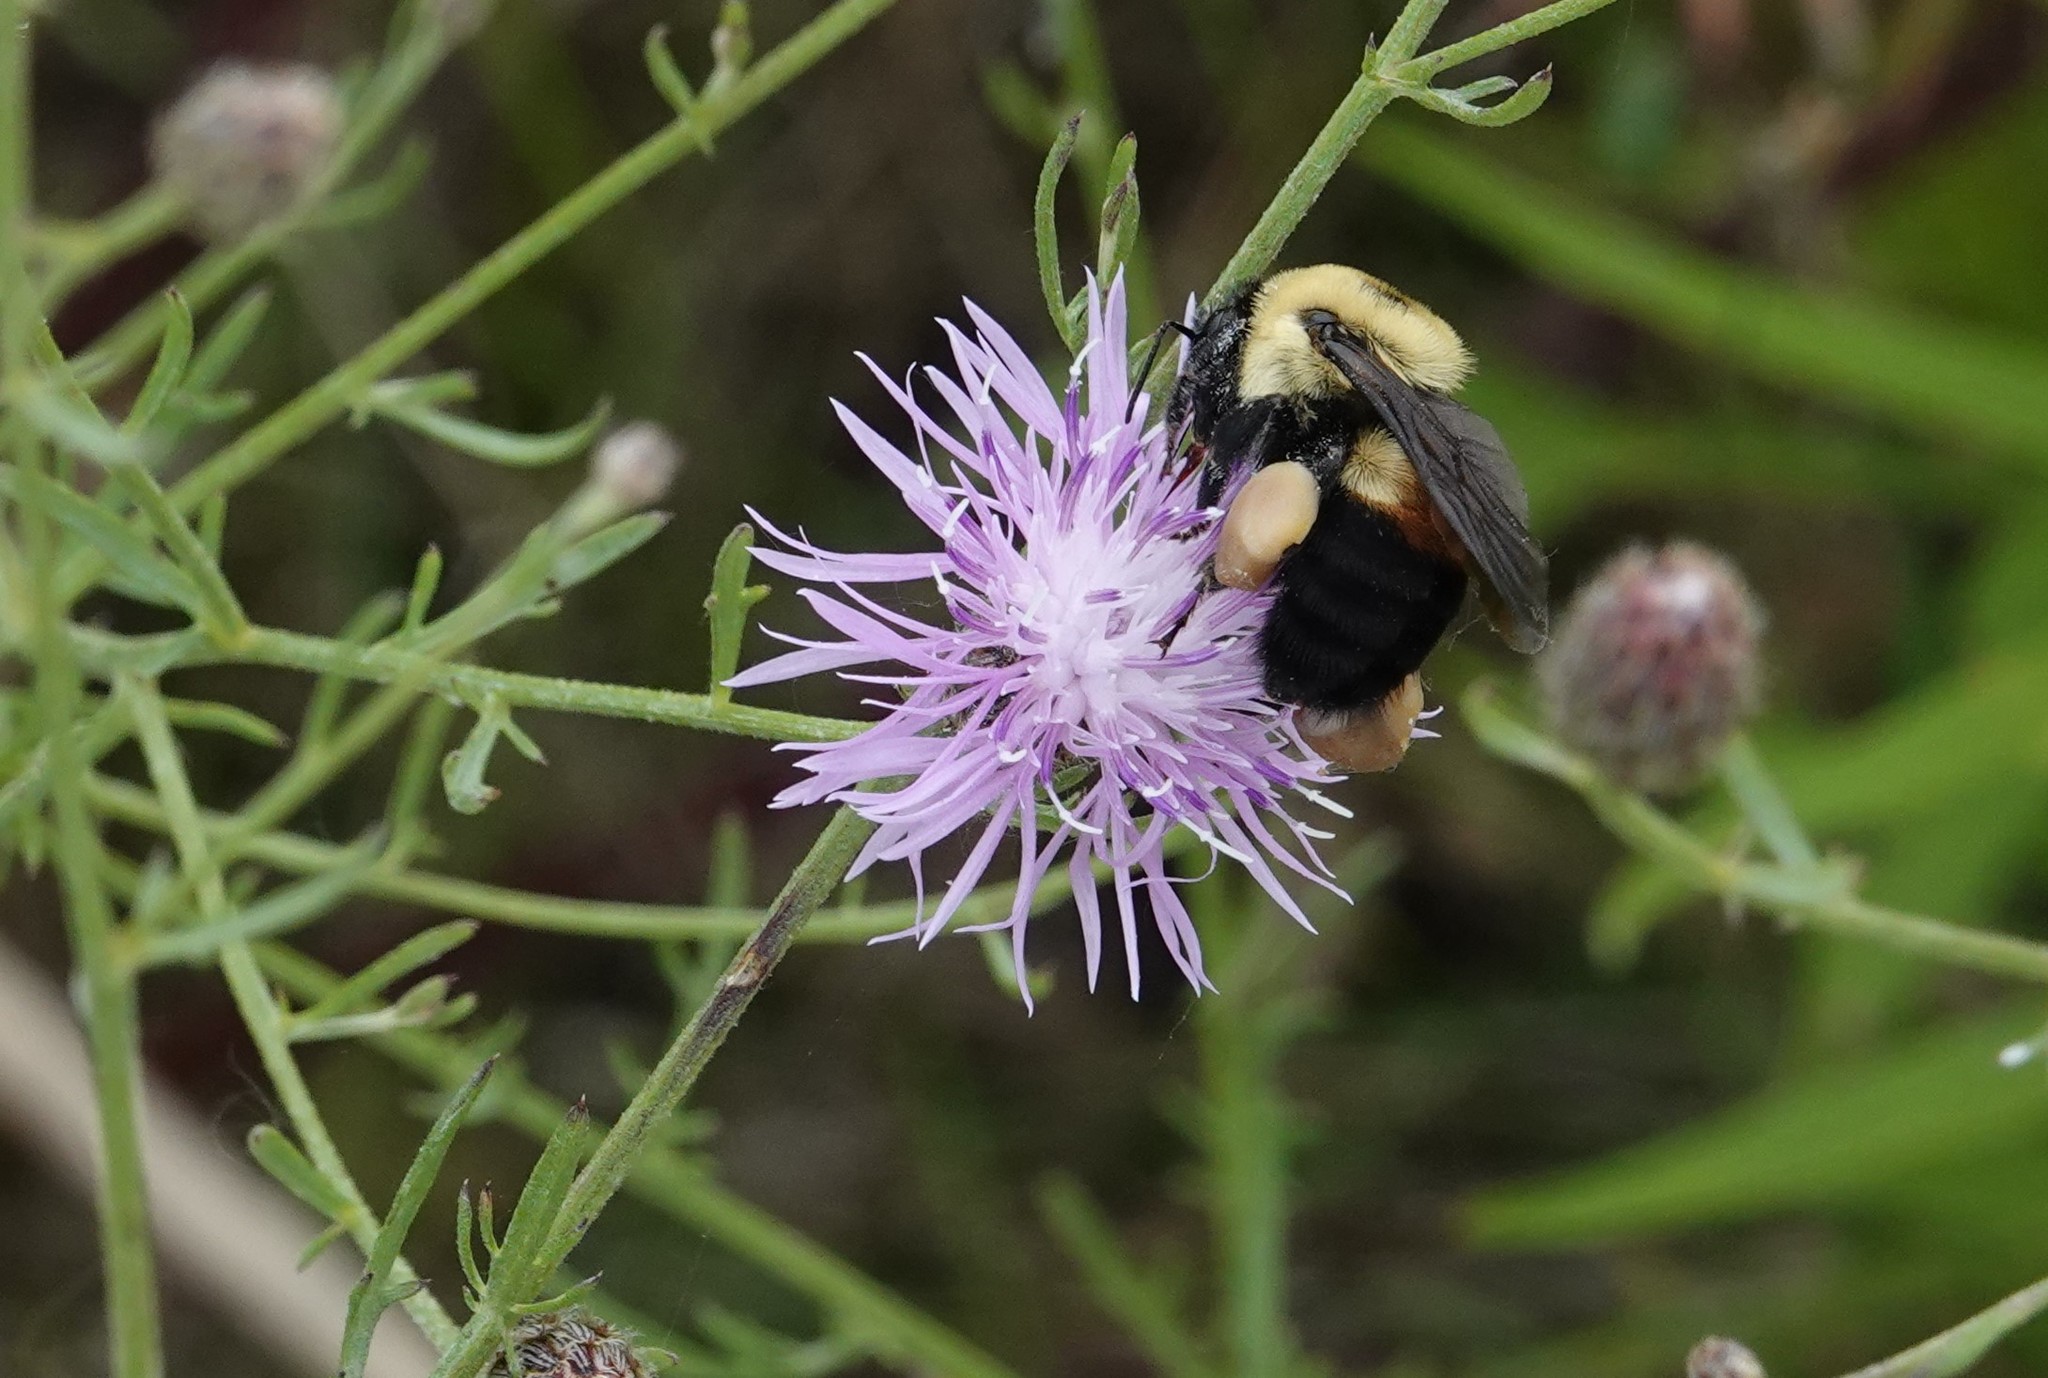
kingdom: Animalia
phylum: Arthropoda
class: Insecta
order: Hymenoptera
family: Apidae
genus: Bombus
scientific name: Bombus griseocollis
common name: Brown-belted bumble bee
